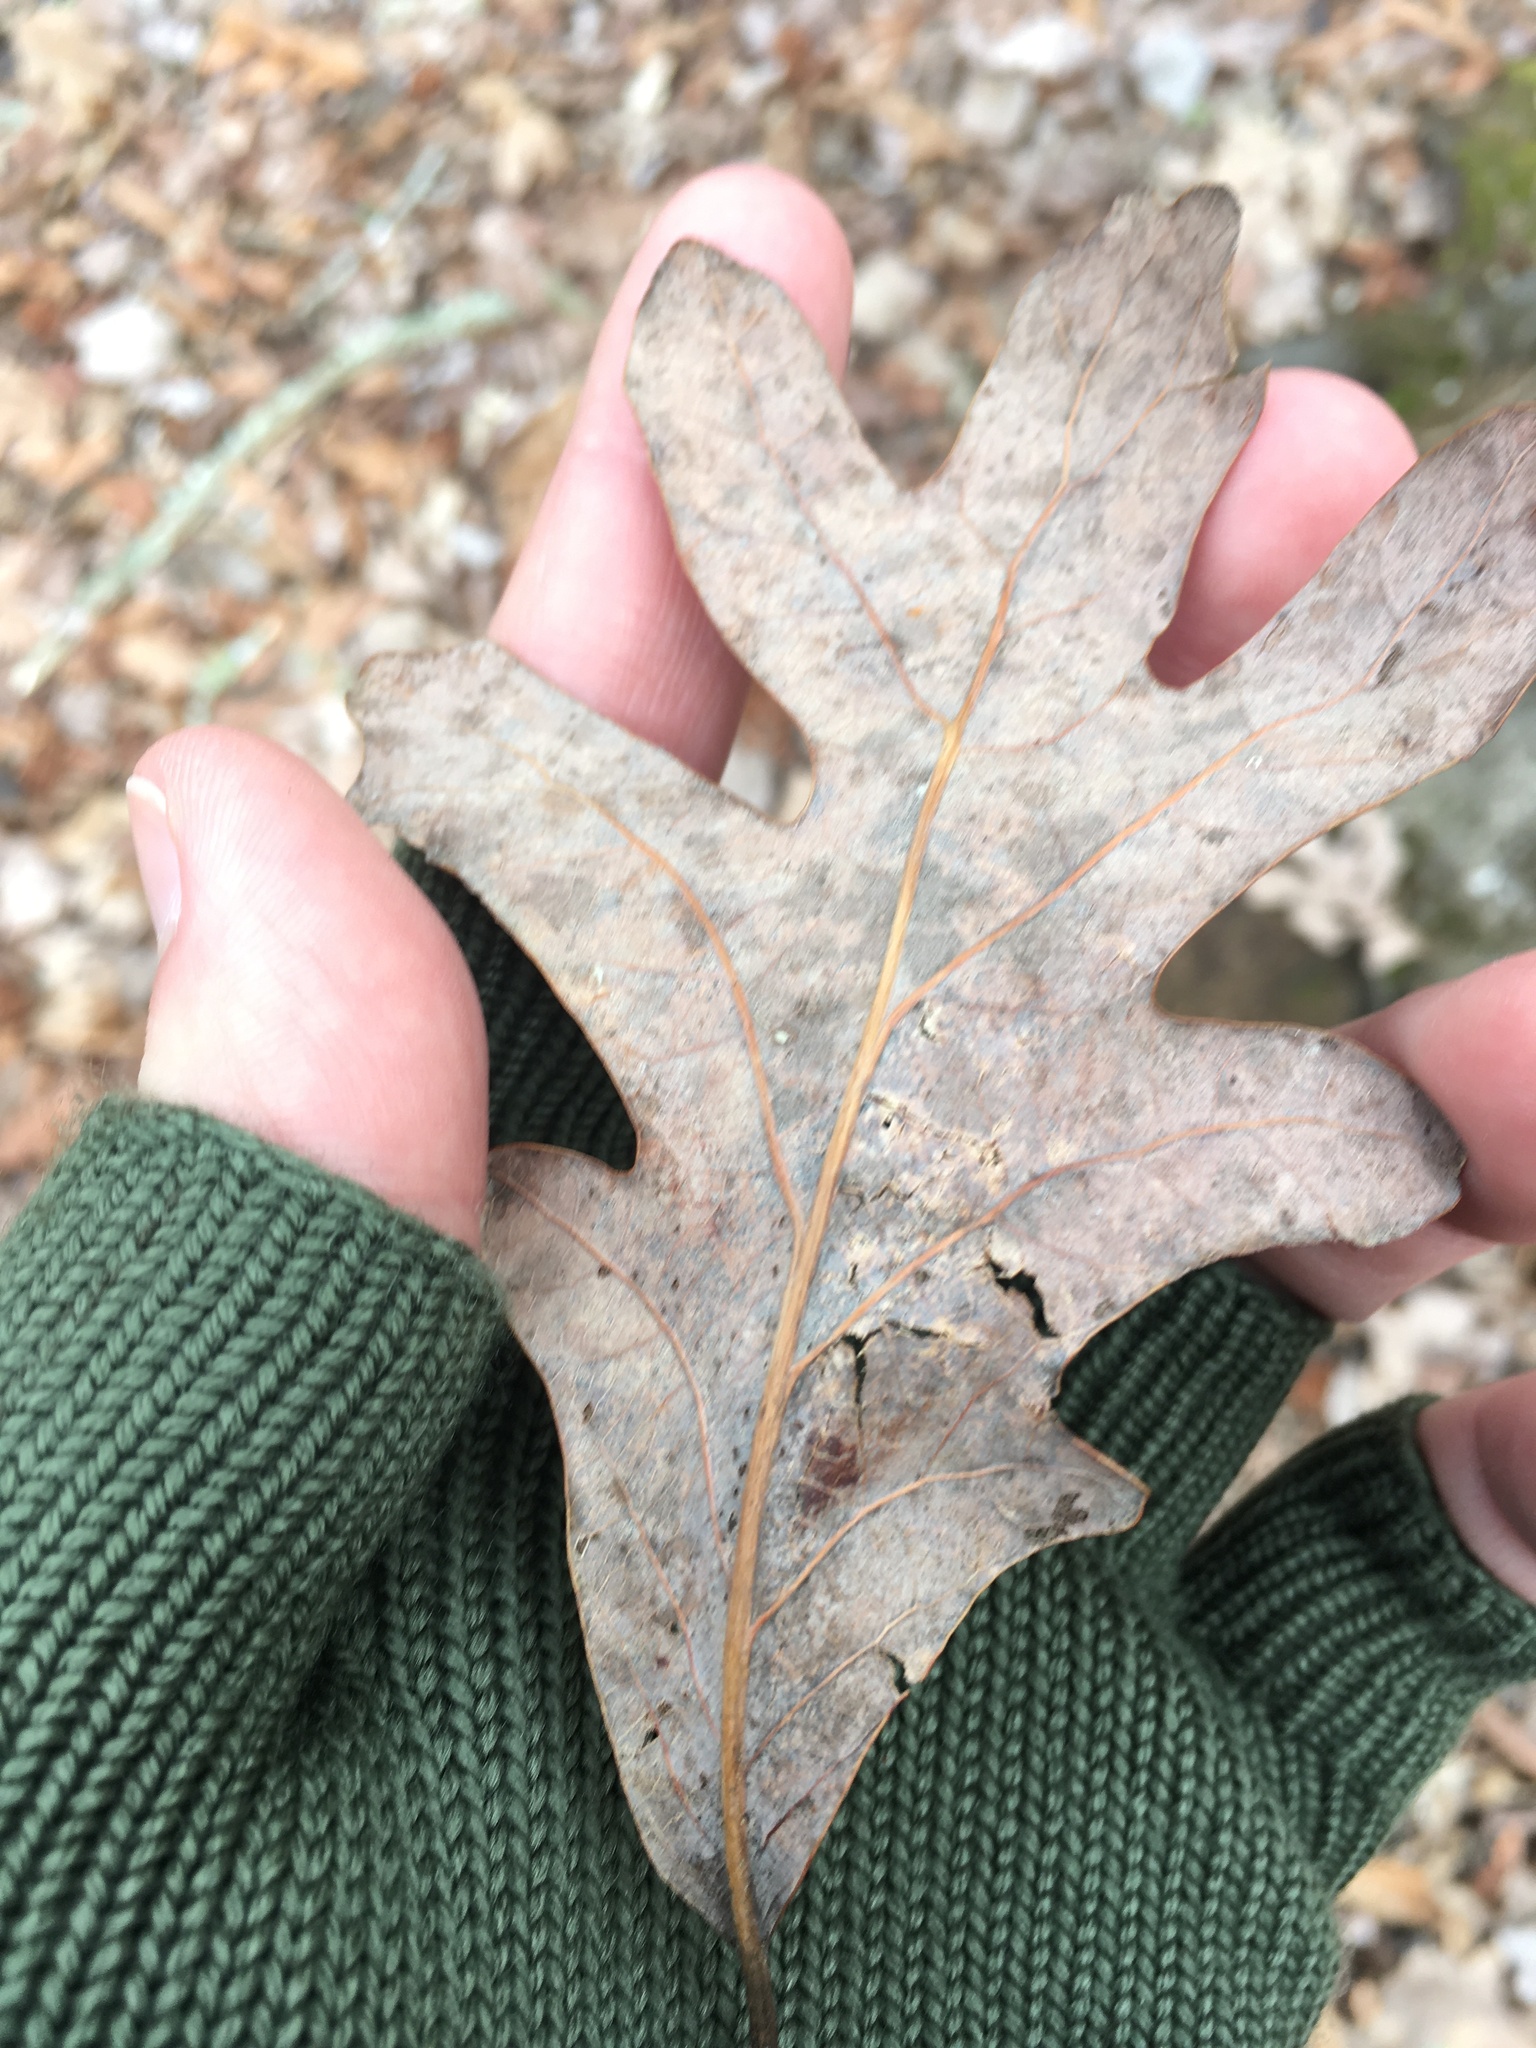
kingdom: Plantae
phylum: Tracheophyta
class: Magnoliopsida
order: Fagales
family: Fagaceae
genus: Quercus
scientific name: Quercus alba
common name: White oak
